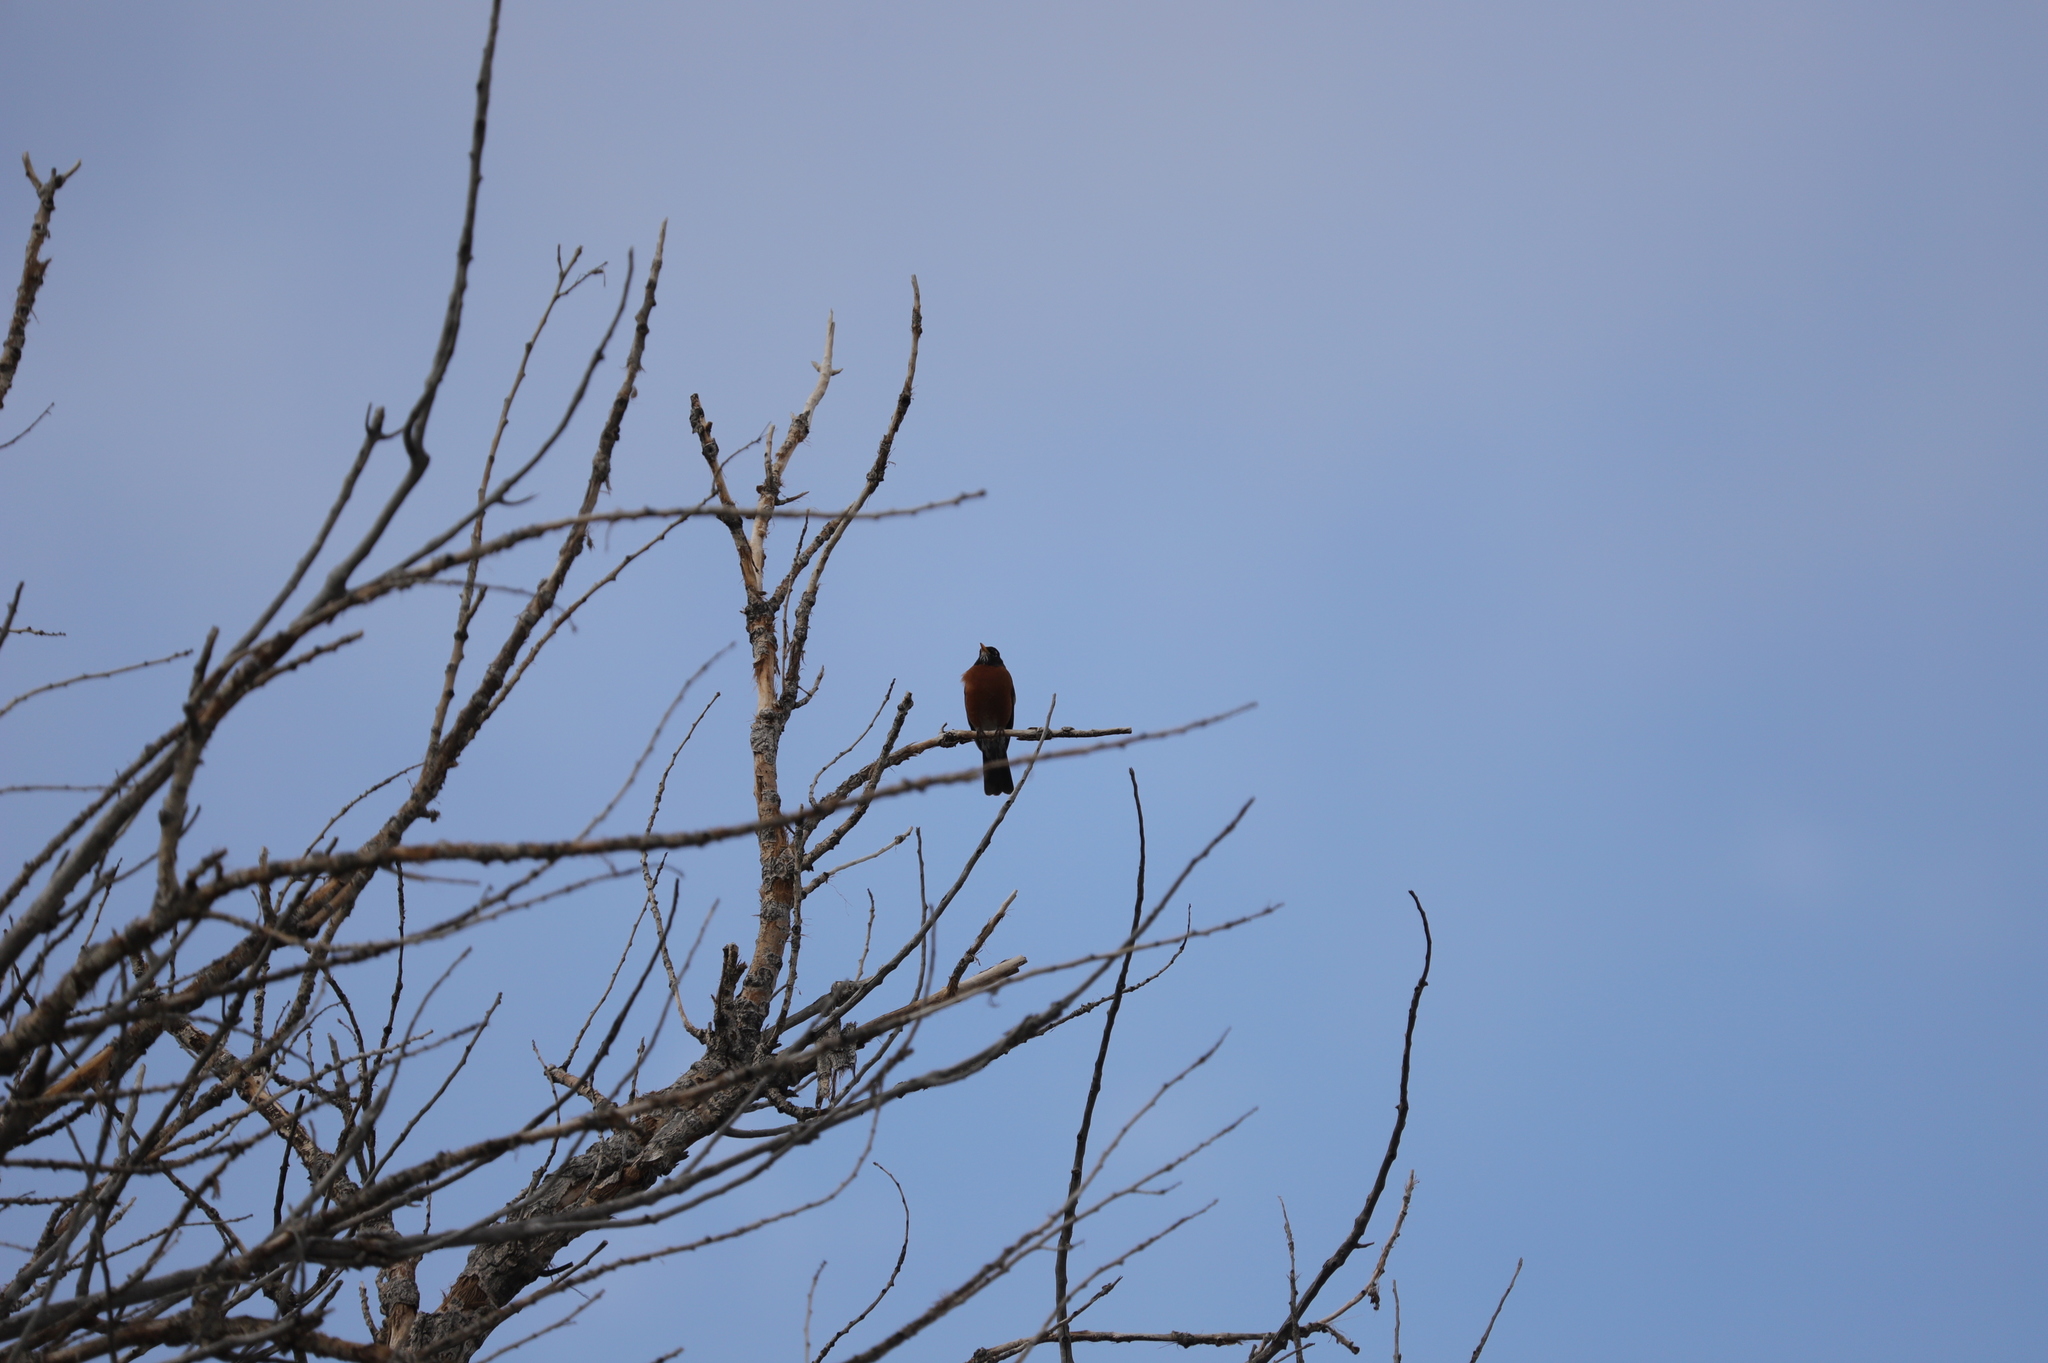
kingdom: Animalia
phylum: Chordata
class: Aves
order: Passeriformes
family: Turdidae
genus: Turdus
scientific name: Turdus migratorius
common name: American robin
